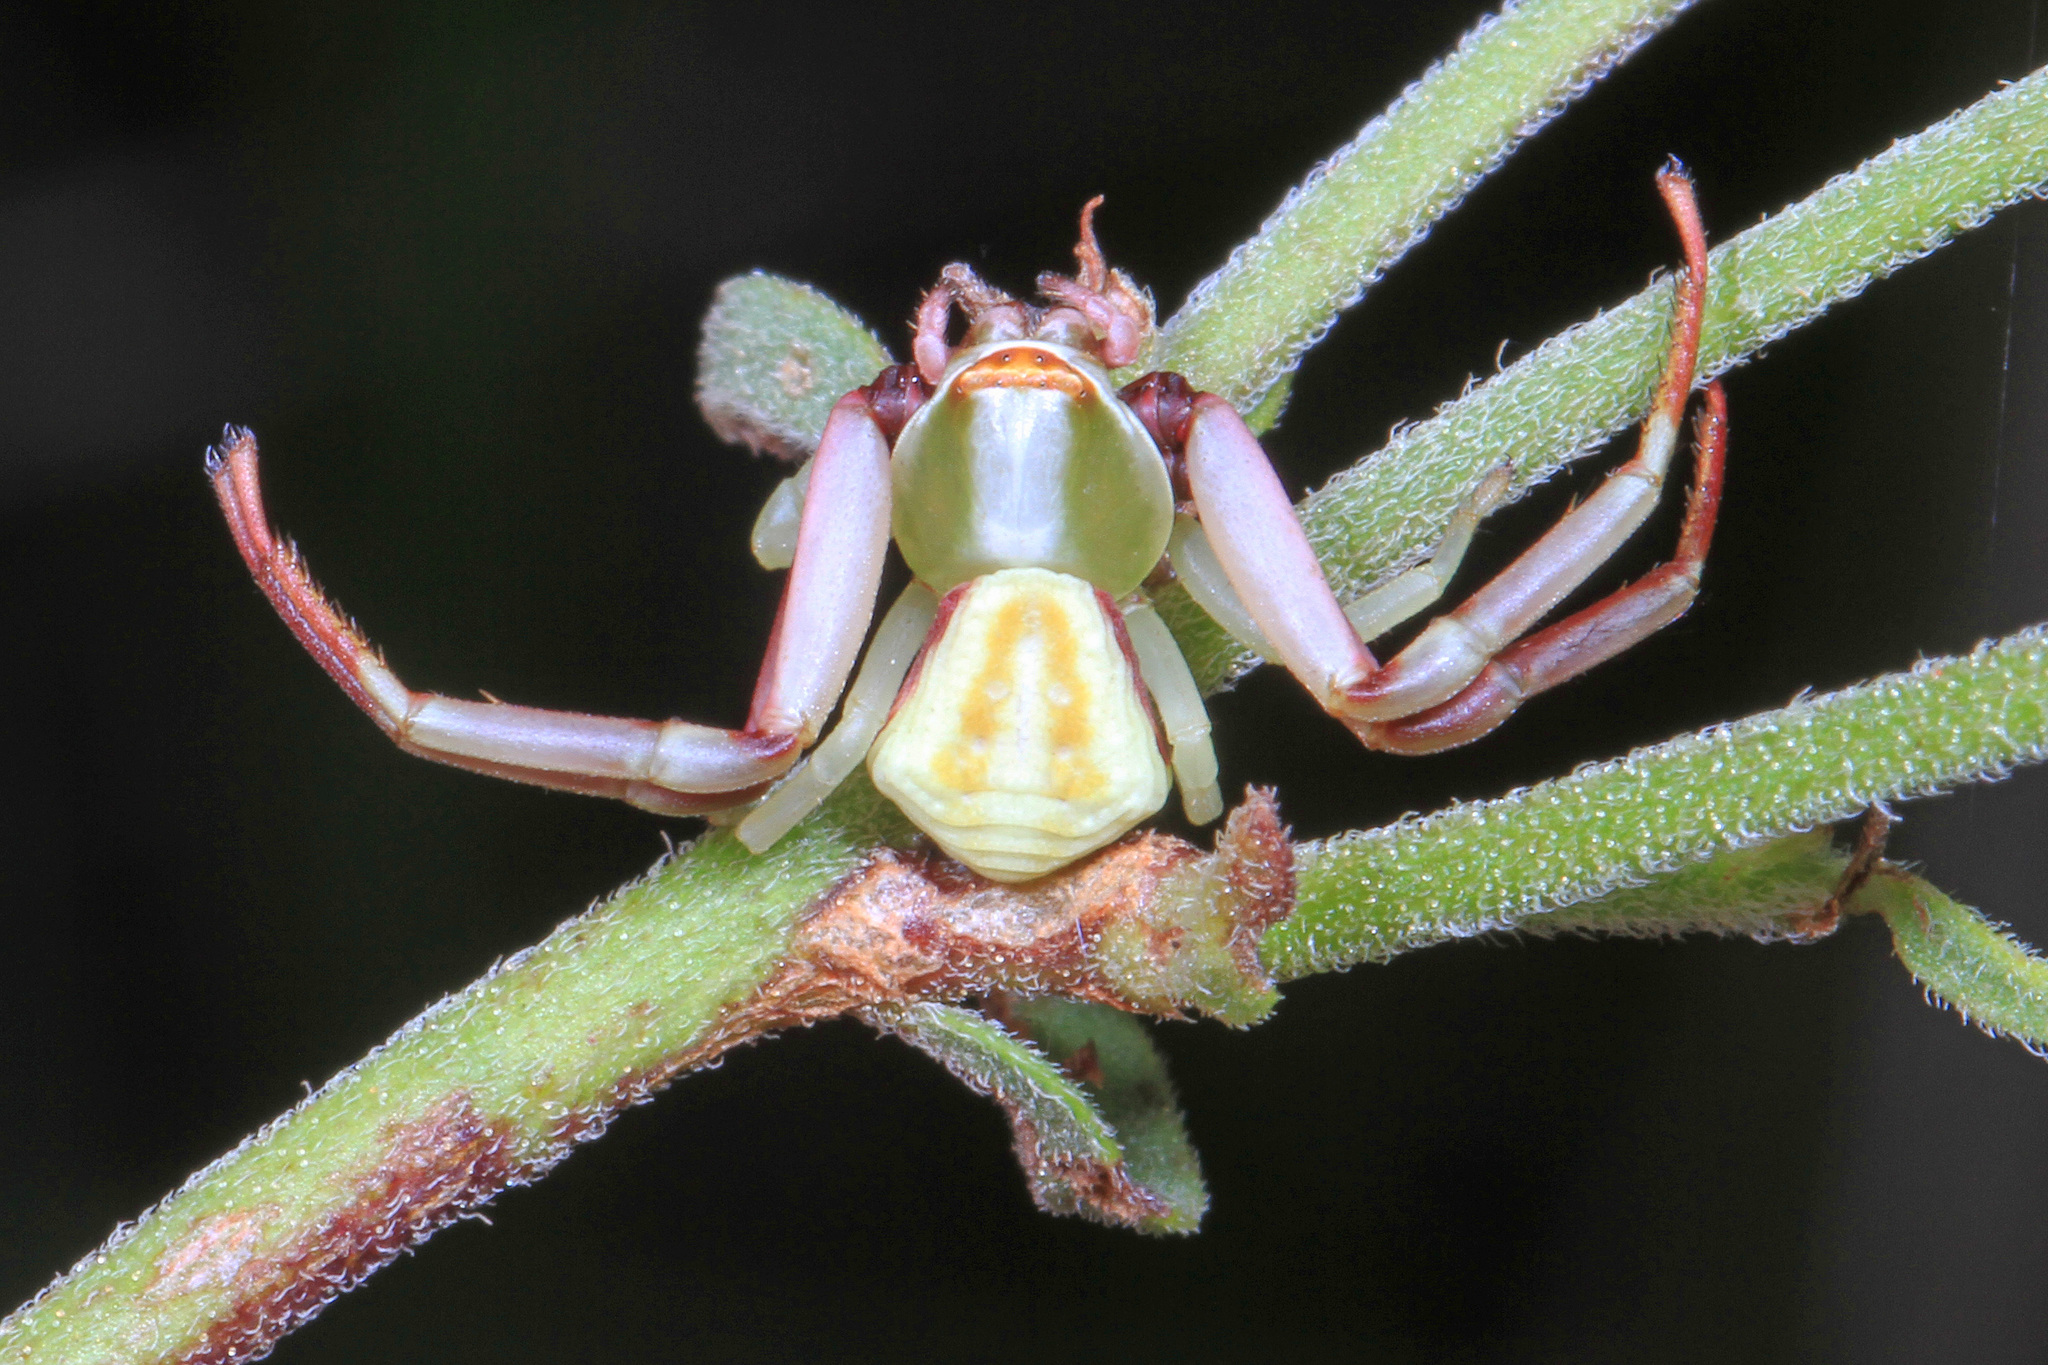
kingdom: Animalia
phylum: Arthropoda
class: Arachnida
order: Araneae
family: Thomisidae
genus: Misumenoides
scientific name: Misumenoides formosipes
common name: White-banded crab spider
